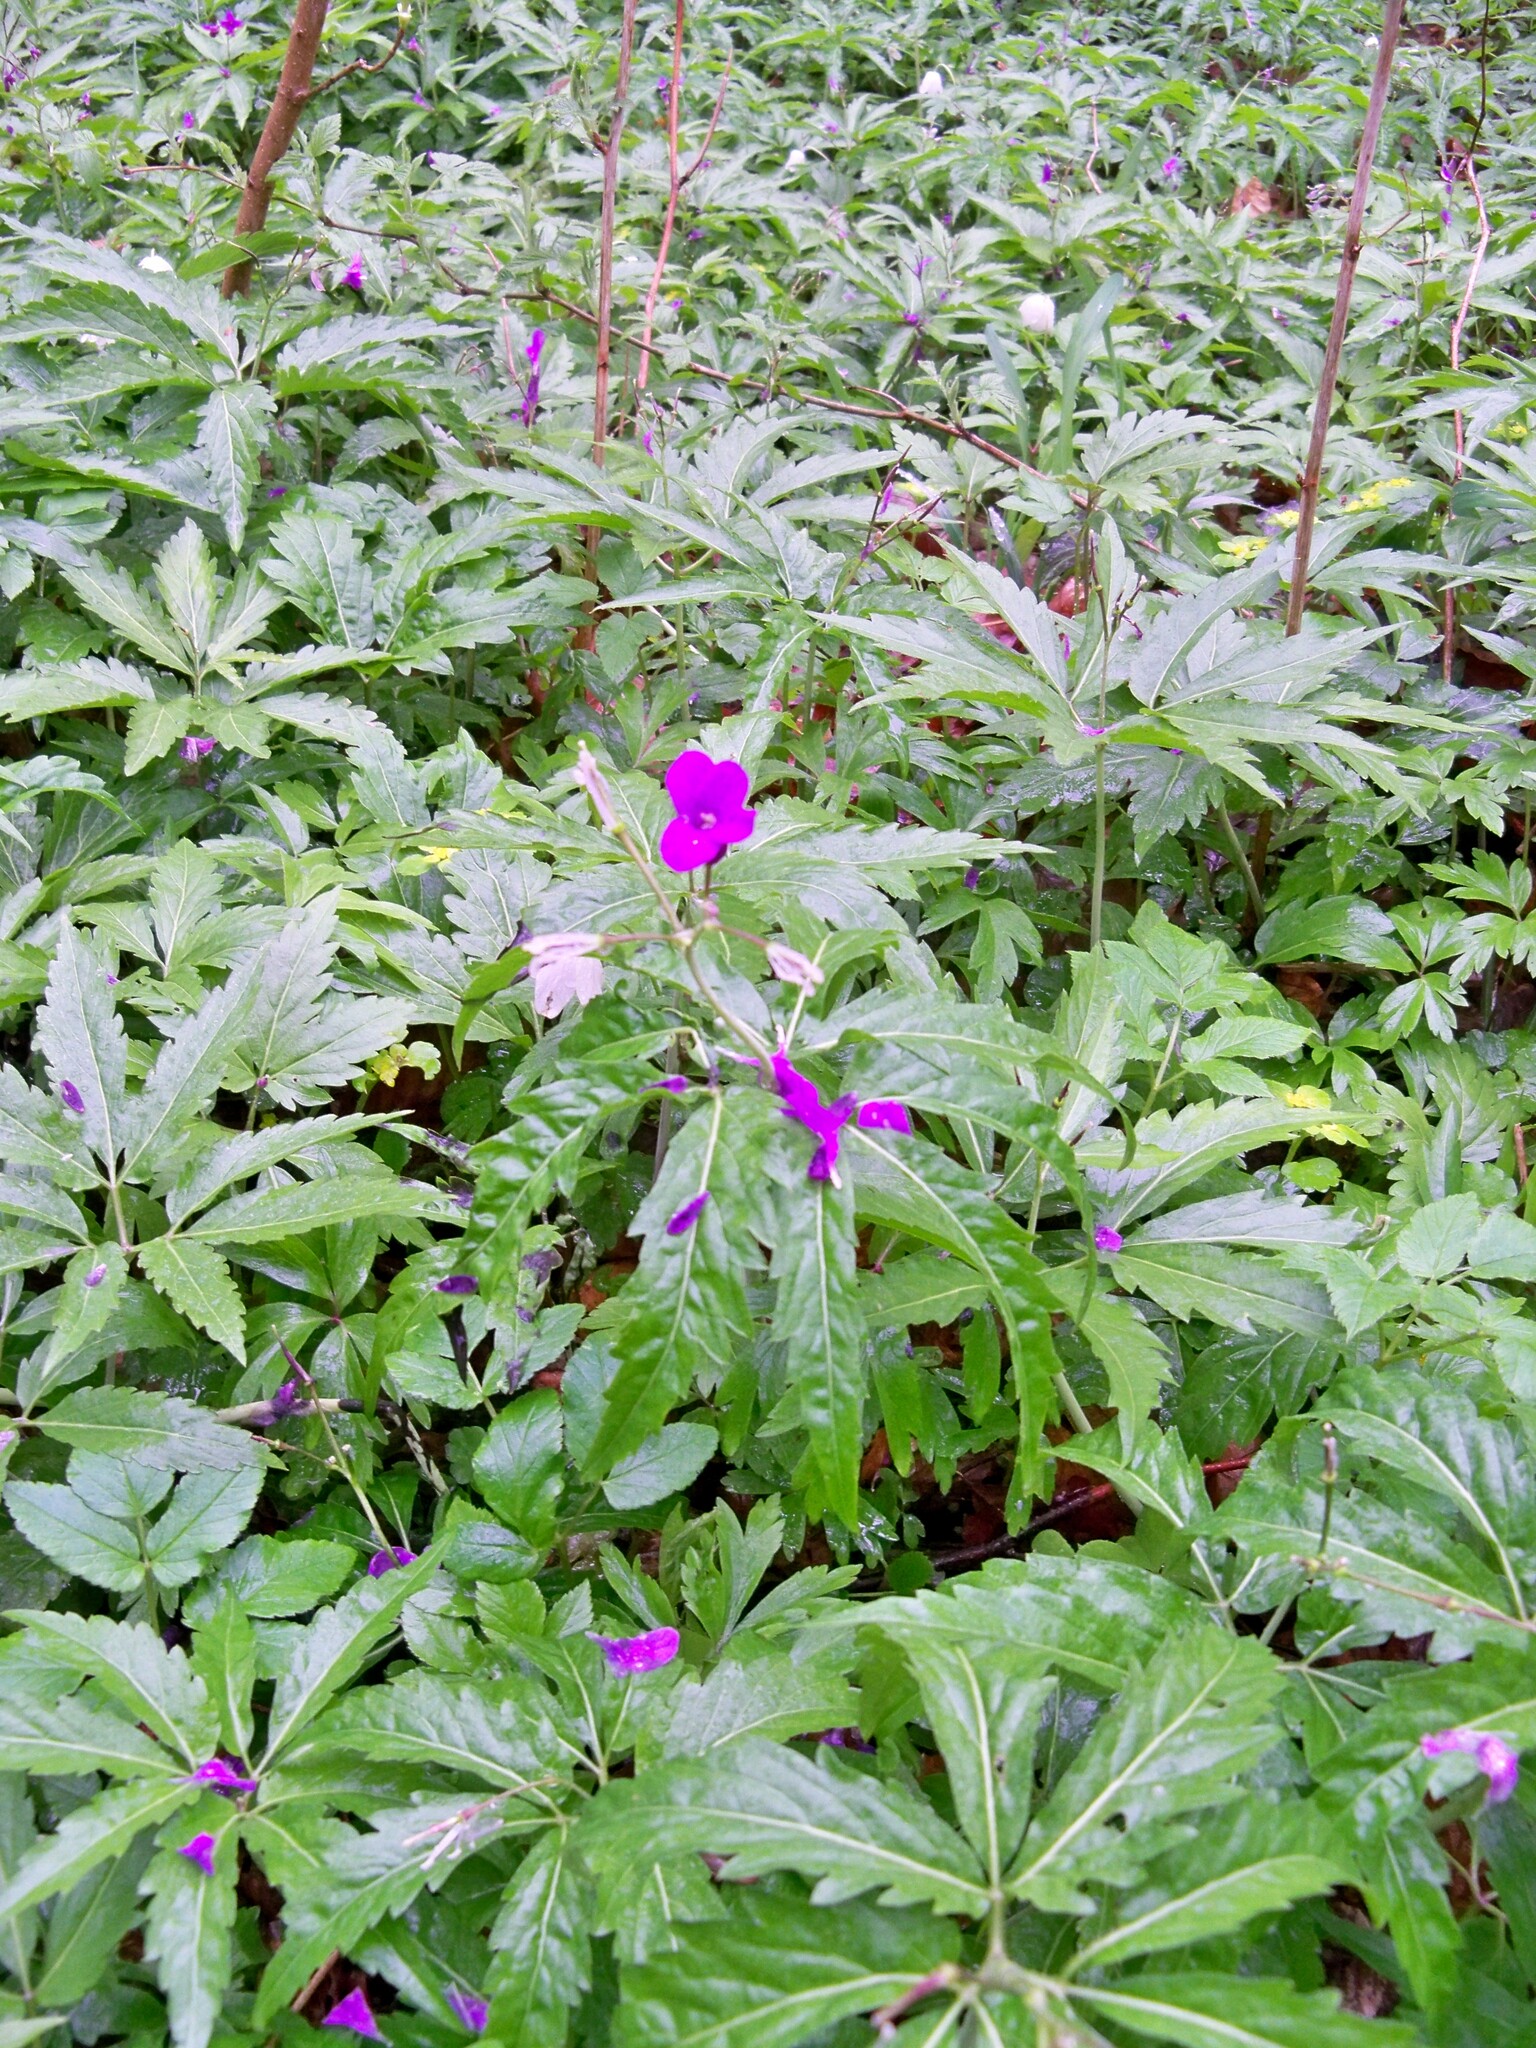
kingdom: Plantae
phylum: Tracheophyta
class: Magnoliopsida
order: Brassicales
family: Brassicaceae
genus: Cardamine
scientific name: Cardamine glanduligera
